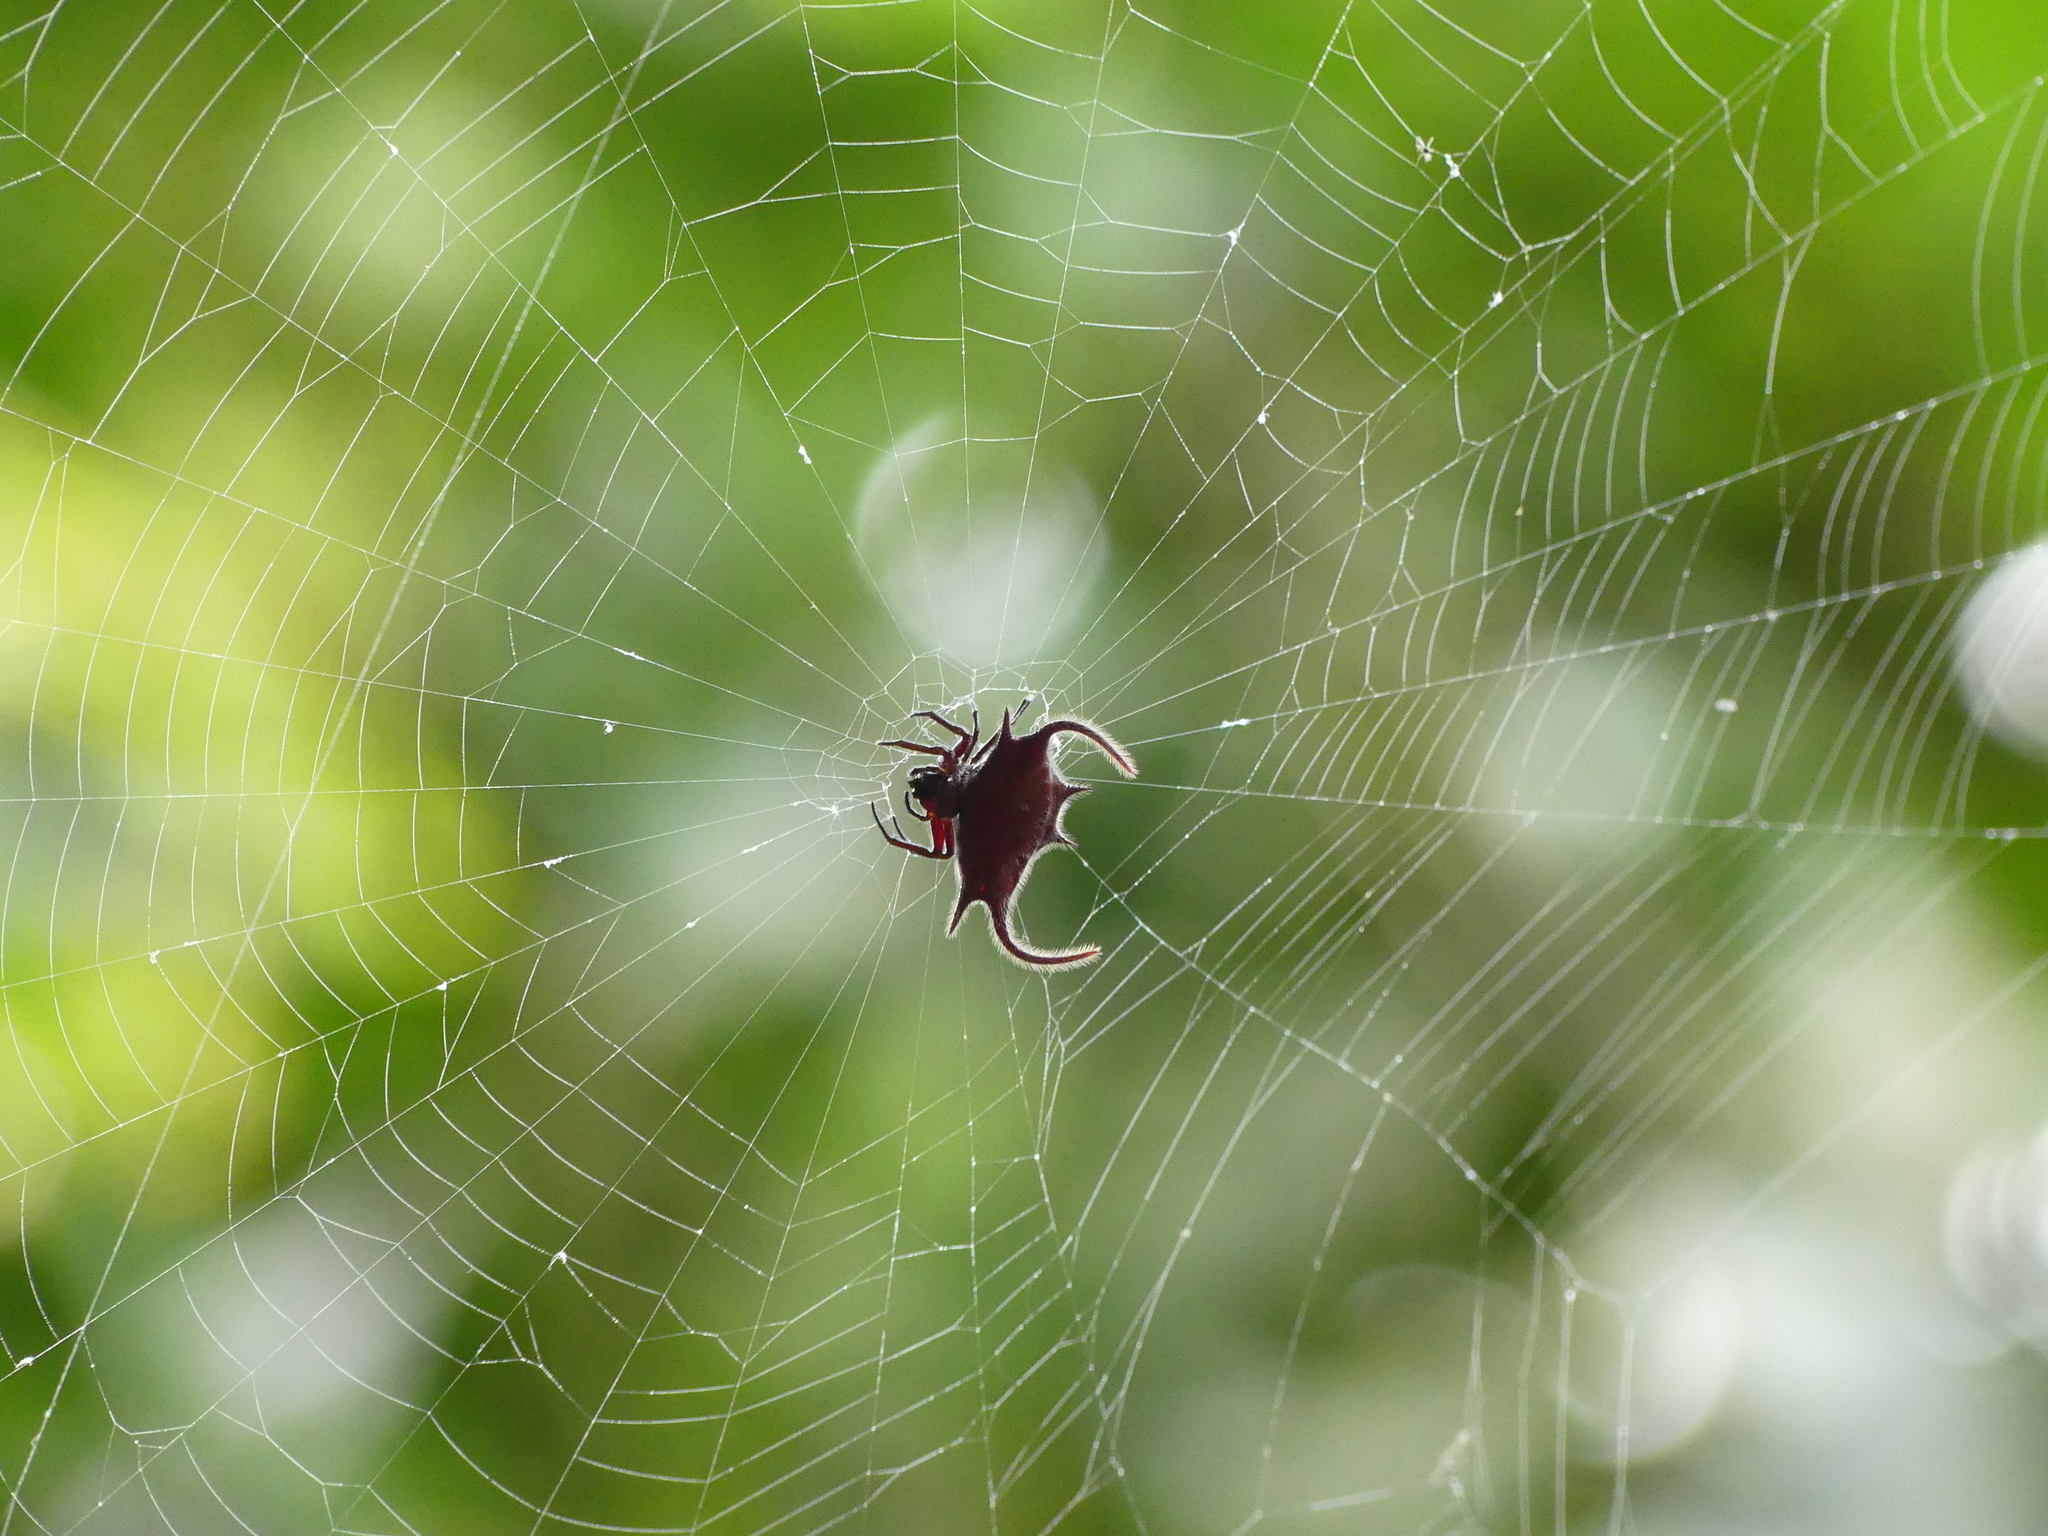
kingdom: Animalia
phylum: Arthropoda
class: Arachnida
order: Araneae
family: Araneidae
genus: Gasteracantha
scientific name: Gasteracantha falcicornis
